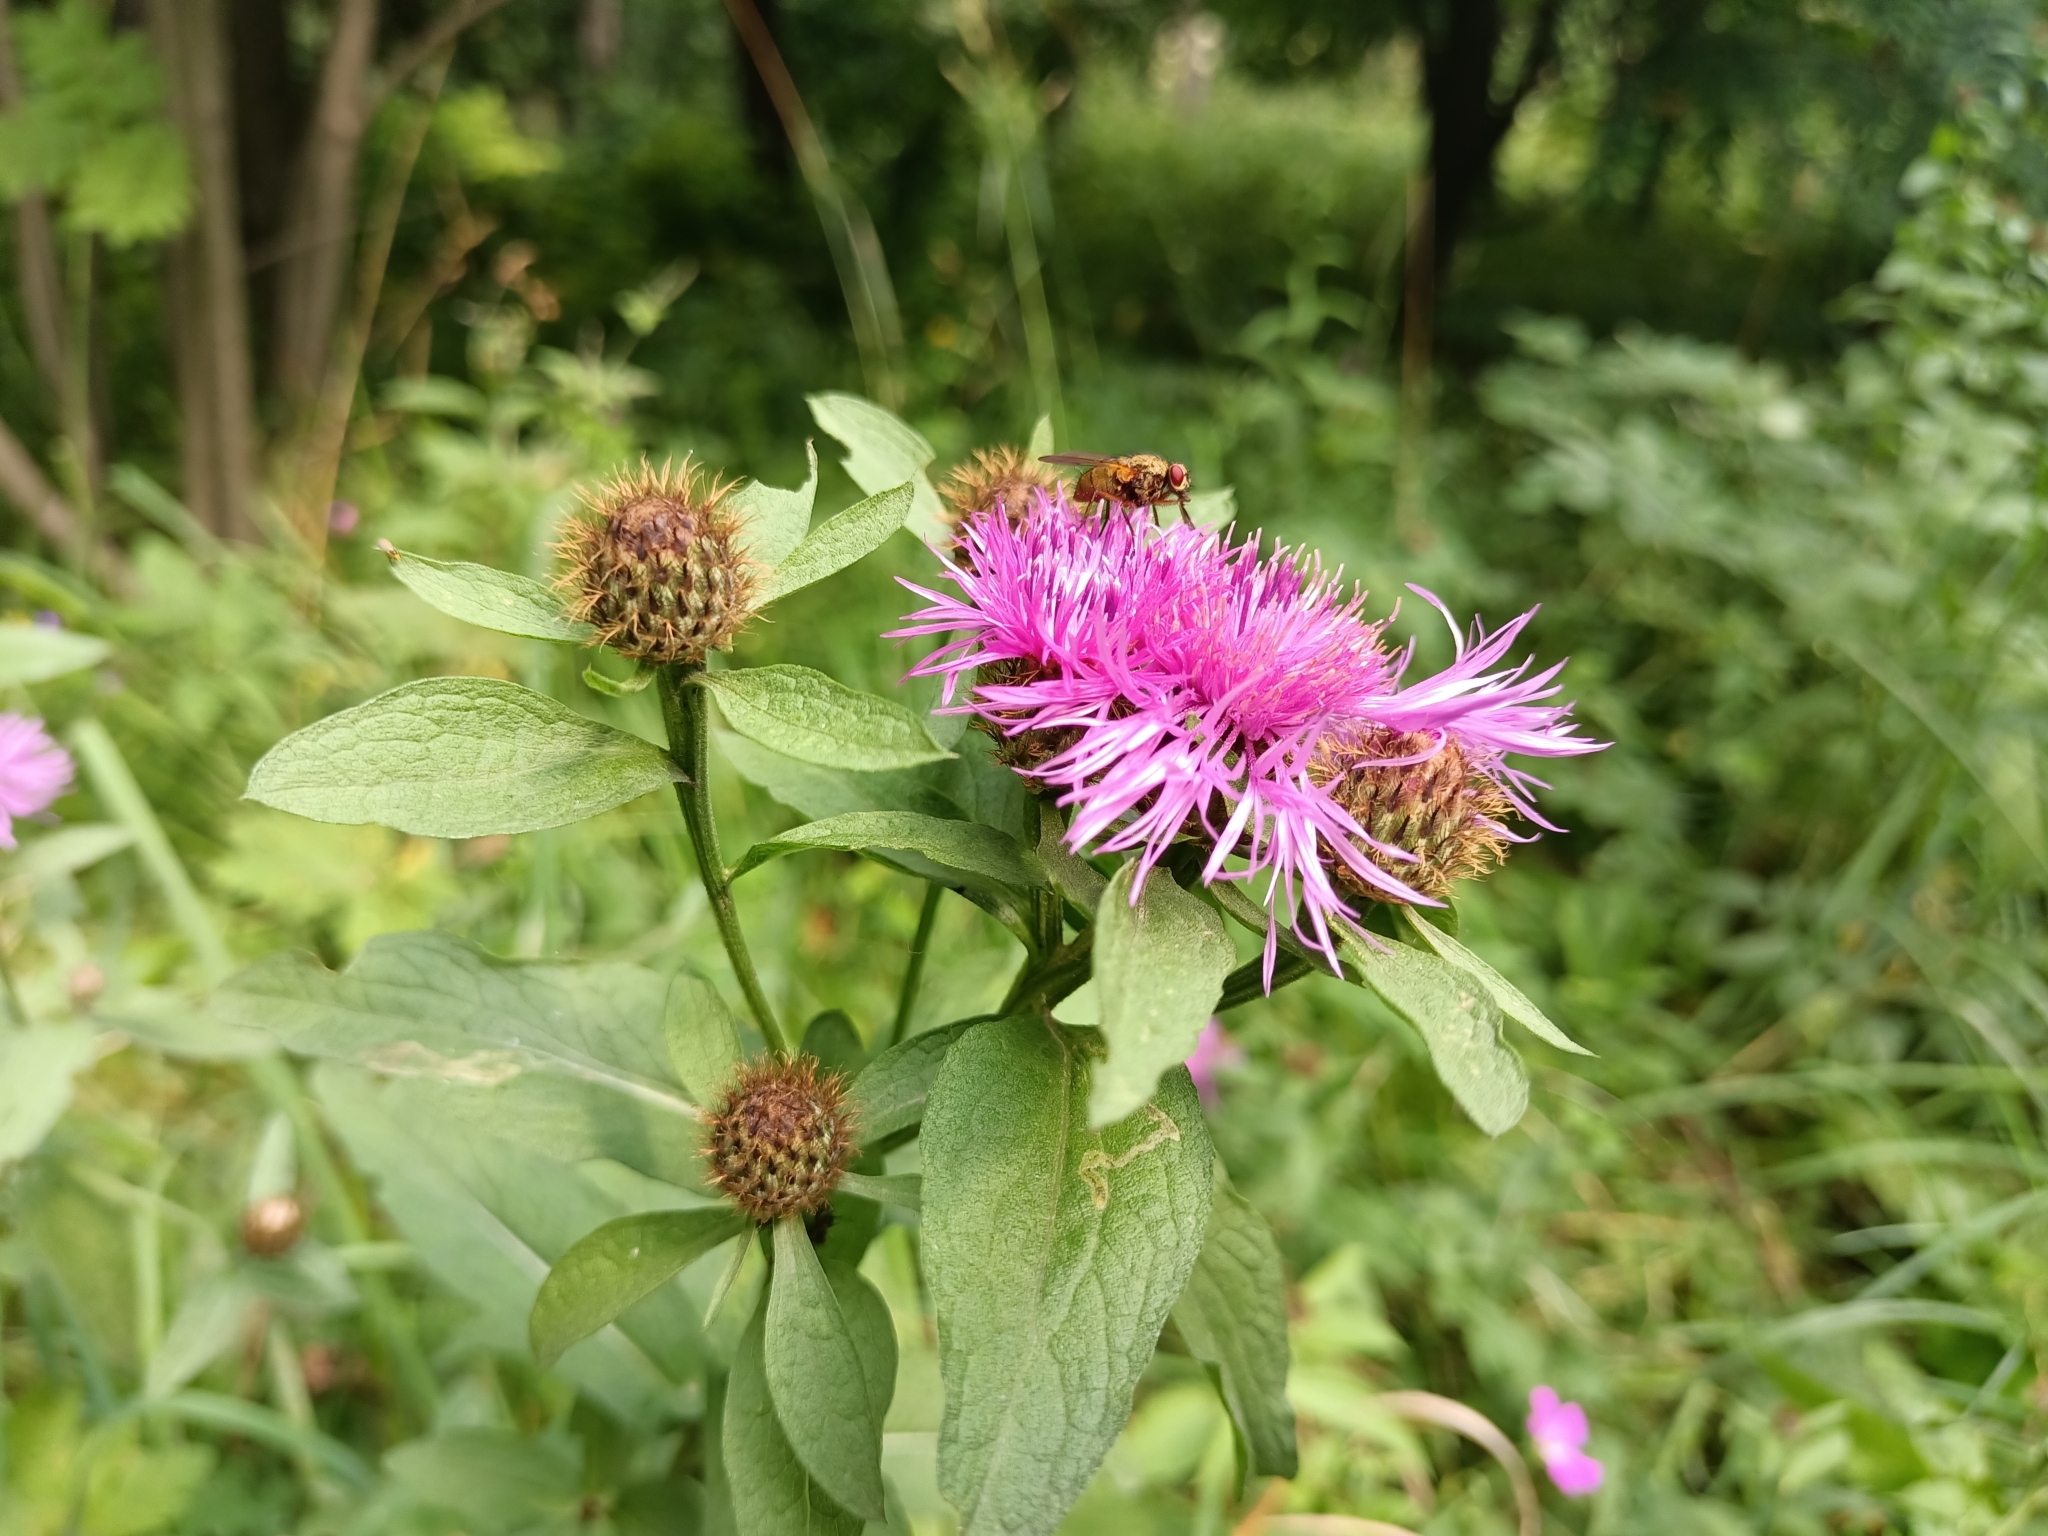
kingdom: Plantae
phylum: Tracheophyta
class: Magnoliopsida
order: Asterales
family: Asteraceae
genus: Centaurea
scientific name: Centaurea phrygia
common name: Wig knapweed
